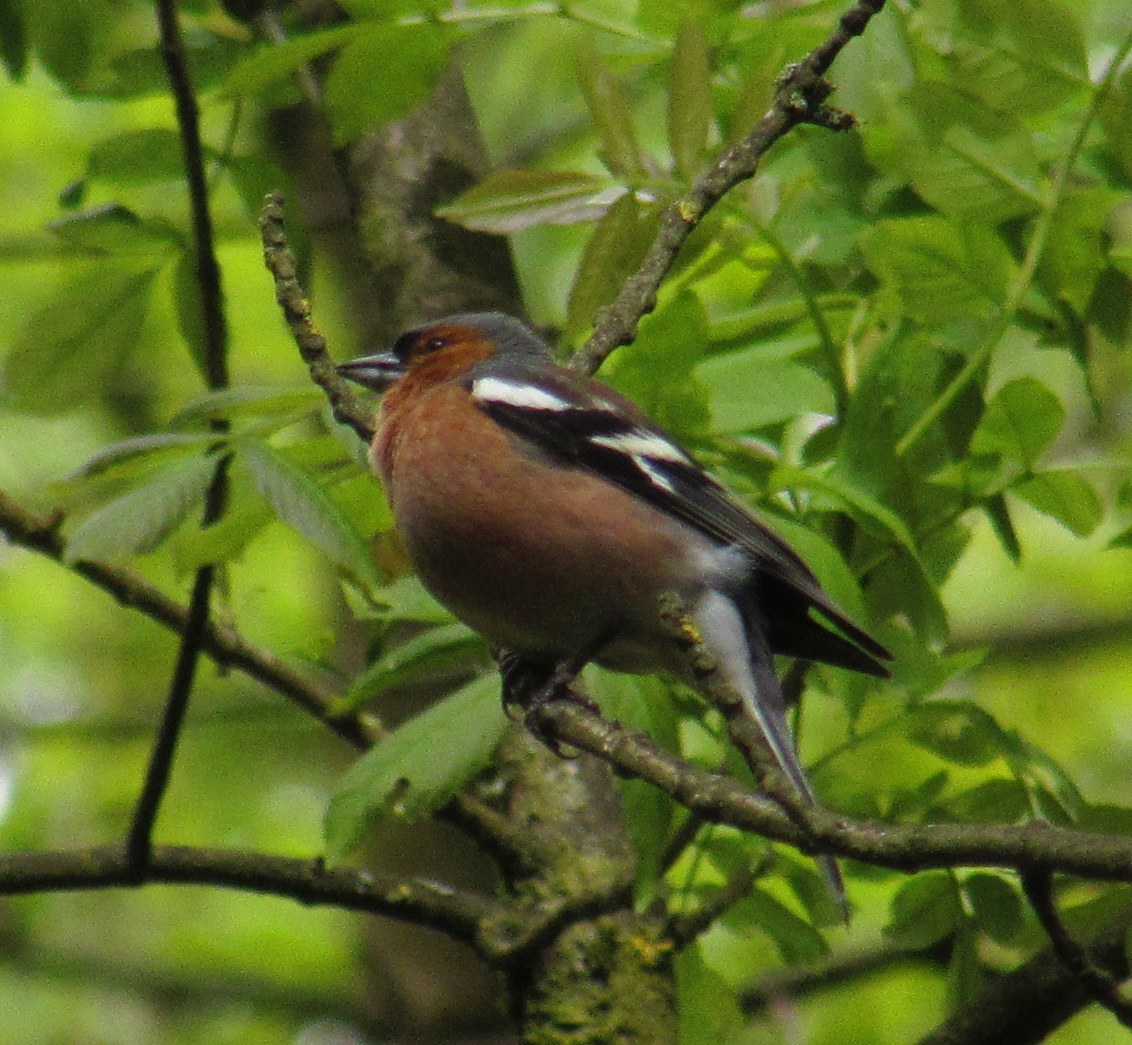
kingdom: Animalia
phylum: Chordata
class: Aves
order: Passeriformes
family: Fringillidae
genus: Fringilla
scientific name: Fringilla coelebs
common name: Common chaffinch
